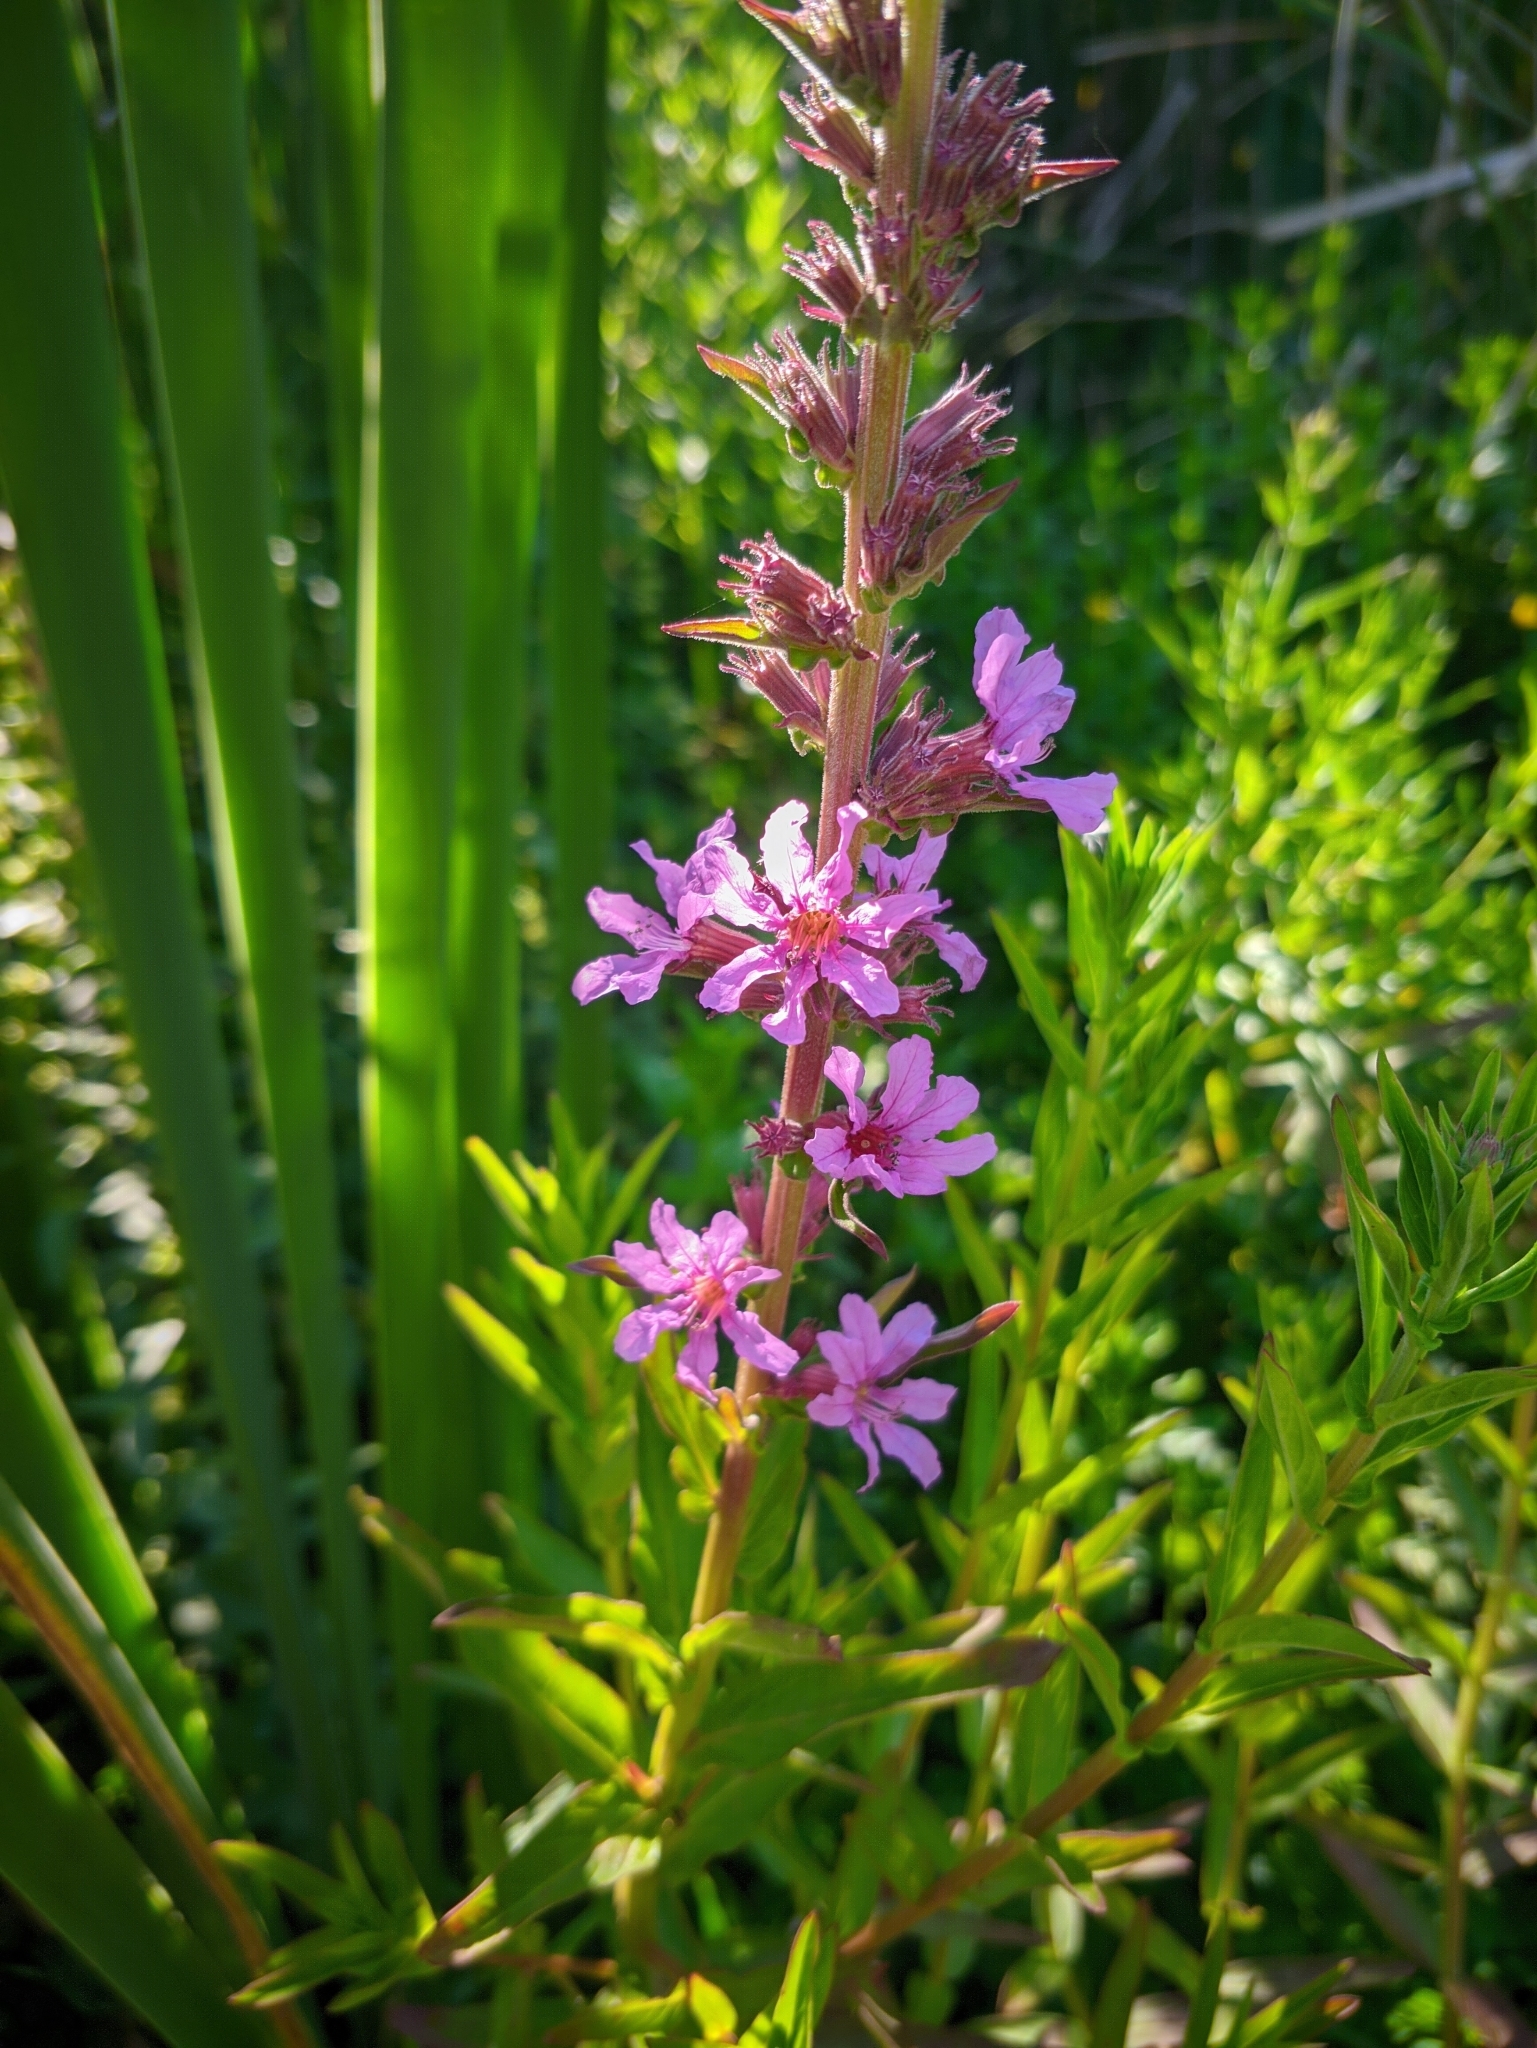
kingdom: Plantae
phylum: Tracheophyta
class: Magnoliopsida
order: Myrtales
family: Lythraceae
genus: Lythrum
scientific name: Lythrum salicaria
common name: Purple loosestrife
